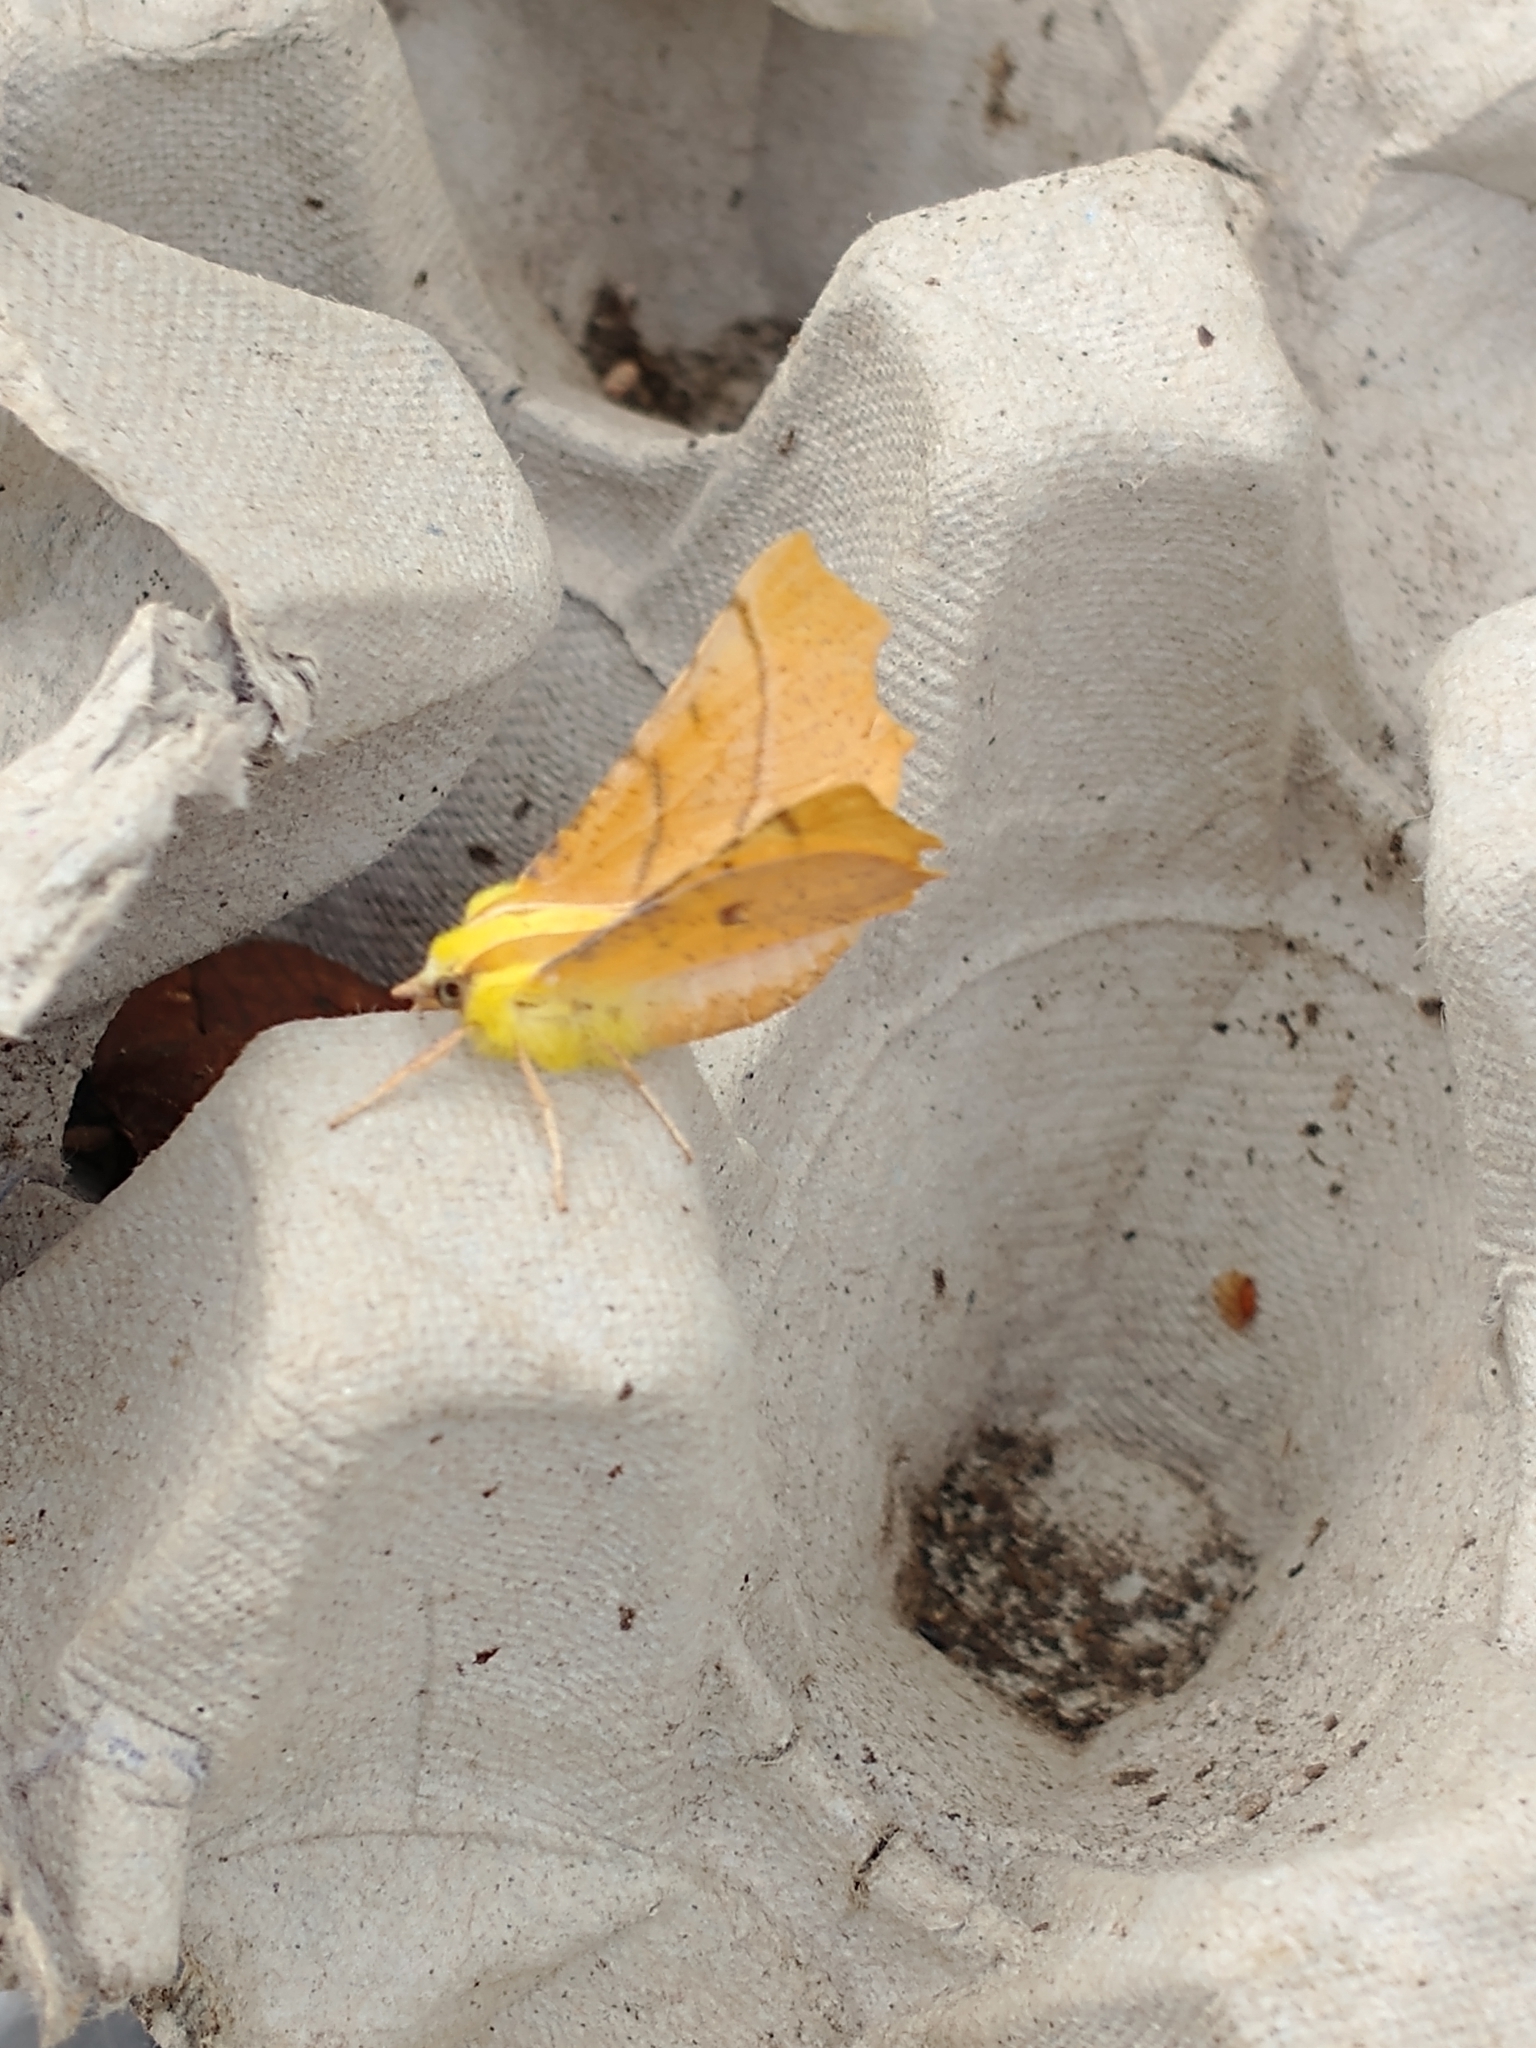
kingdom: Animalia
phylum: Arthropoda
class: Insecta
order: Lepidoptera
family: Geometridae
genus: Ennomos
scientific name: Ennomos alniaria
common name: Canary-shouldered thorn
